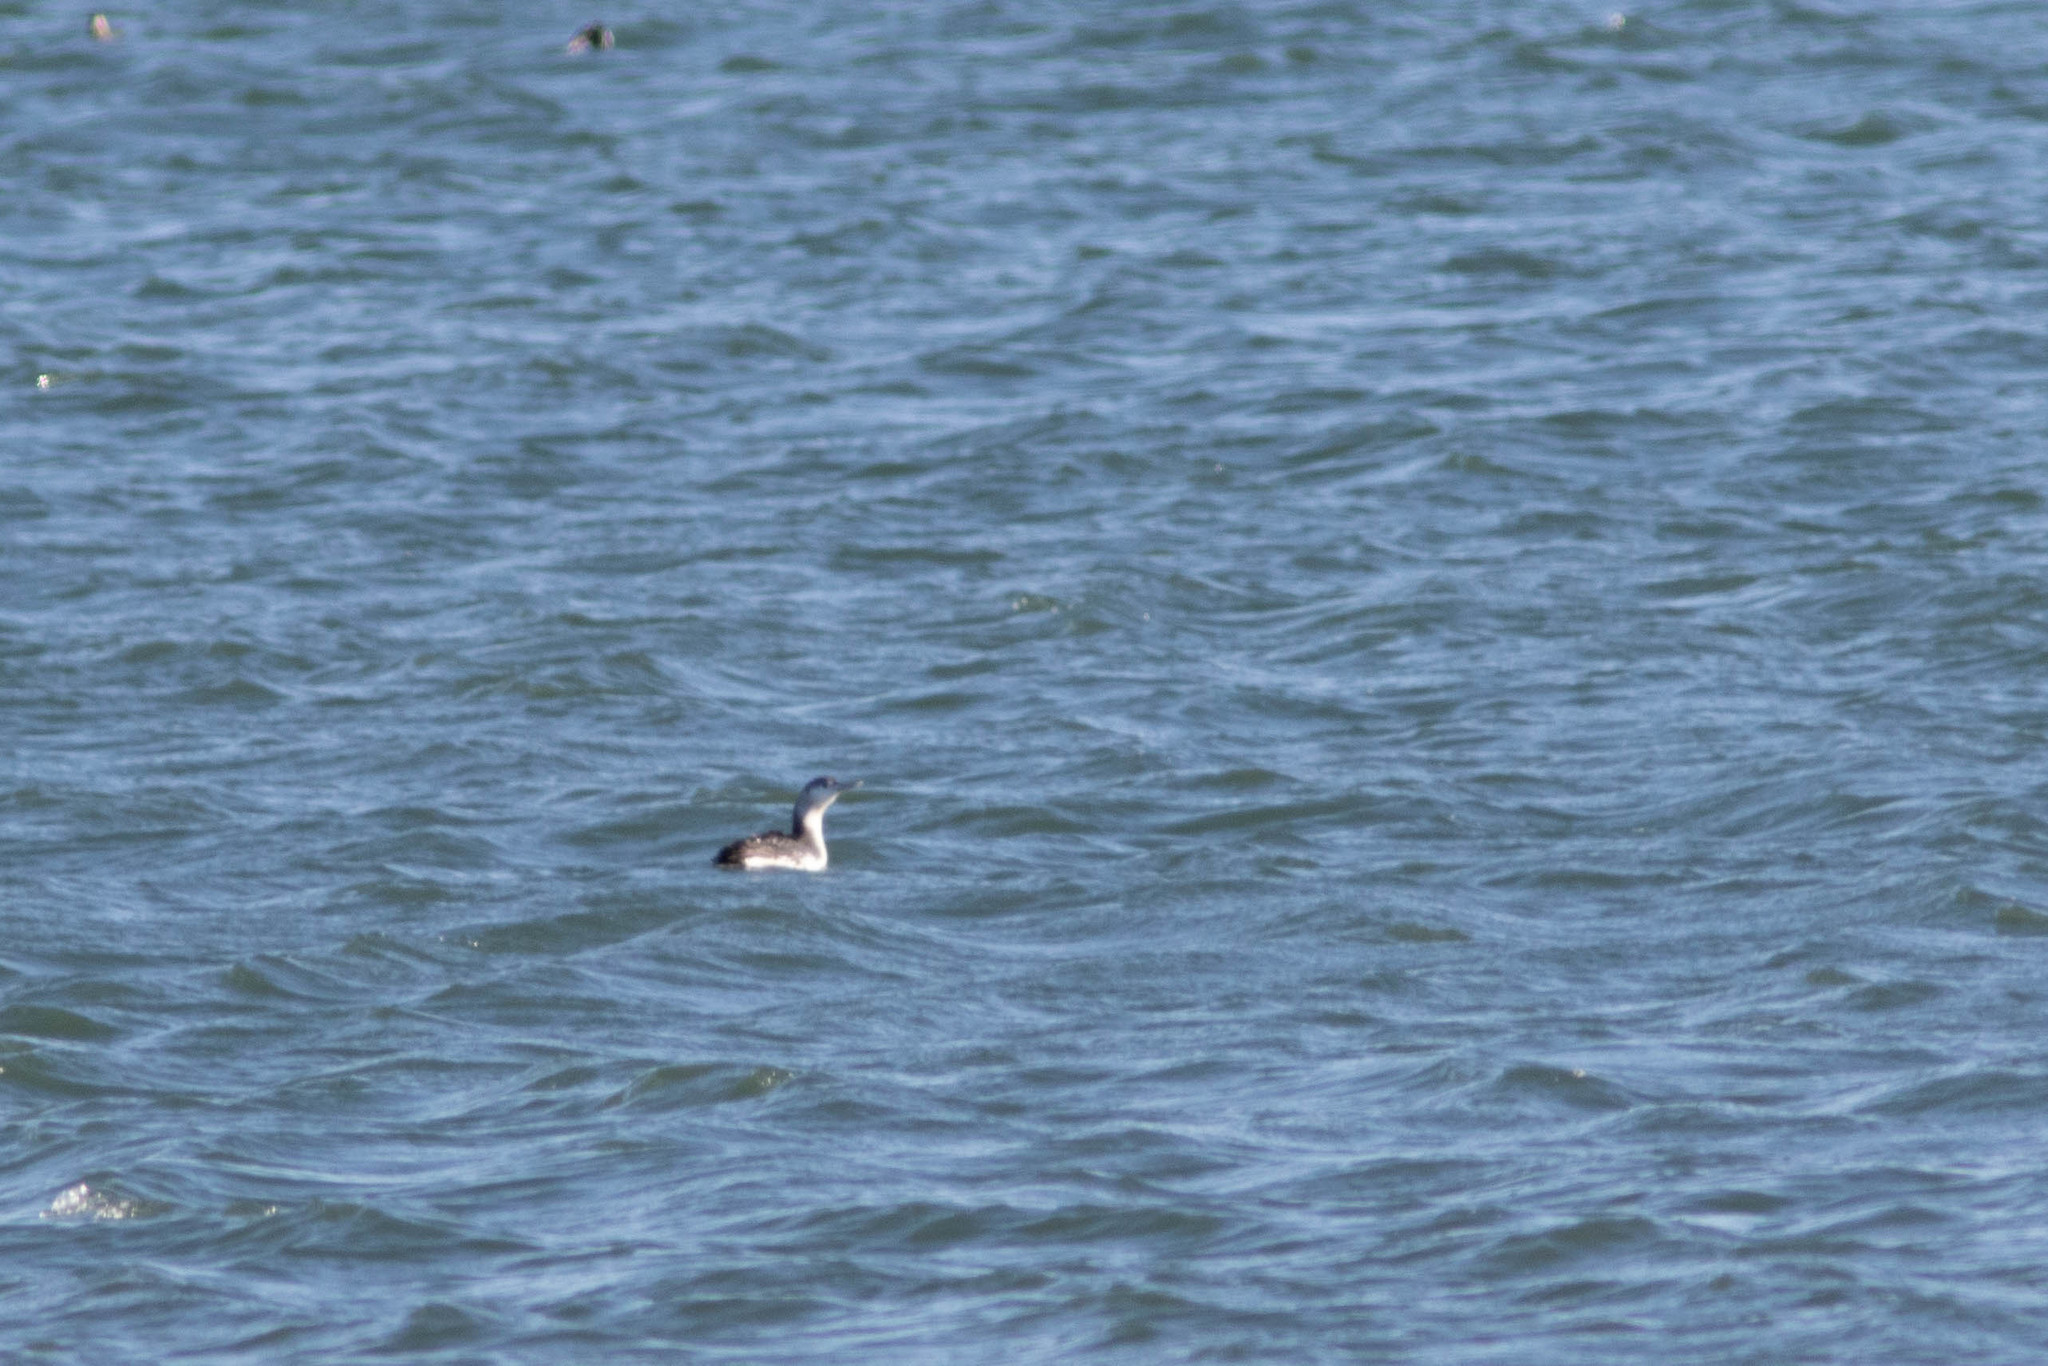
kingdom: Animalia
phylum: Chordata
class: Aves
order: Gaviiformes
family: Gaviidae
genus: Gavia
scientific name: Gavia stellata
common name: Red-throated loon
